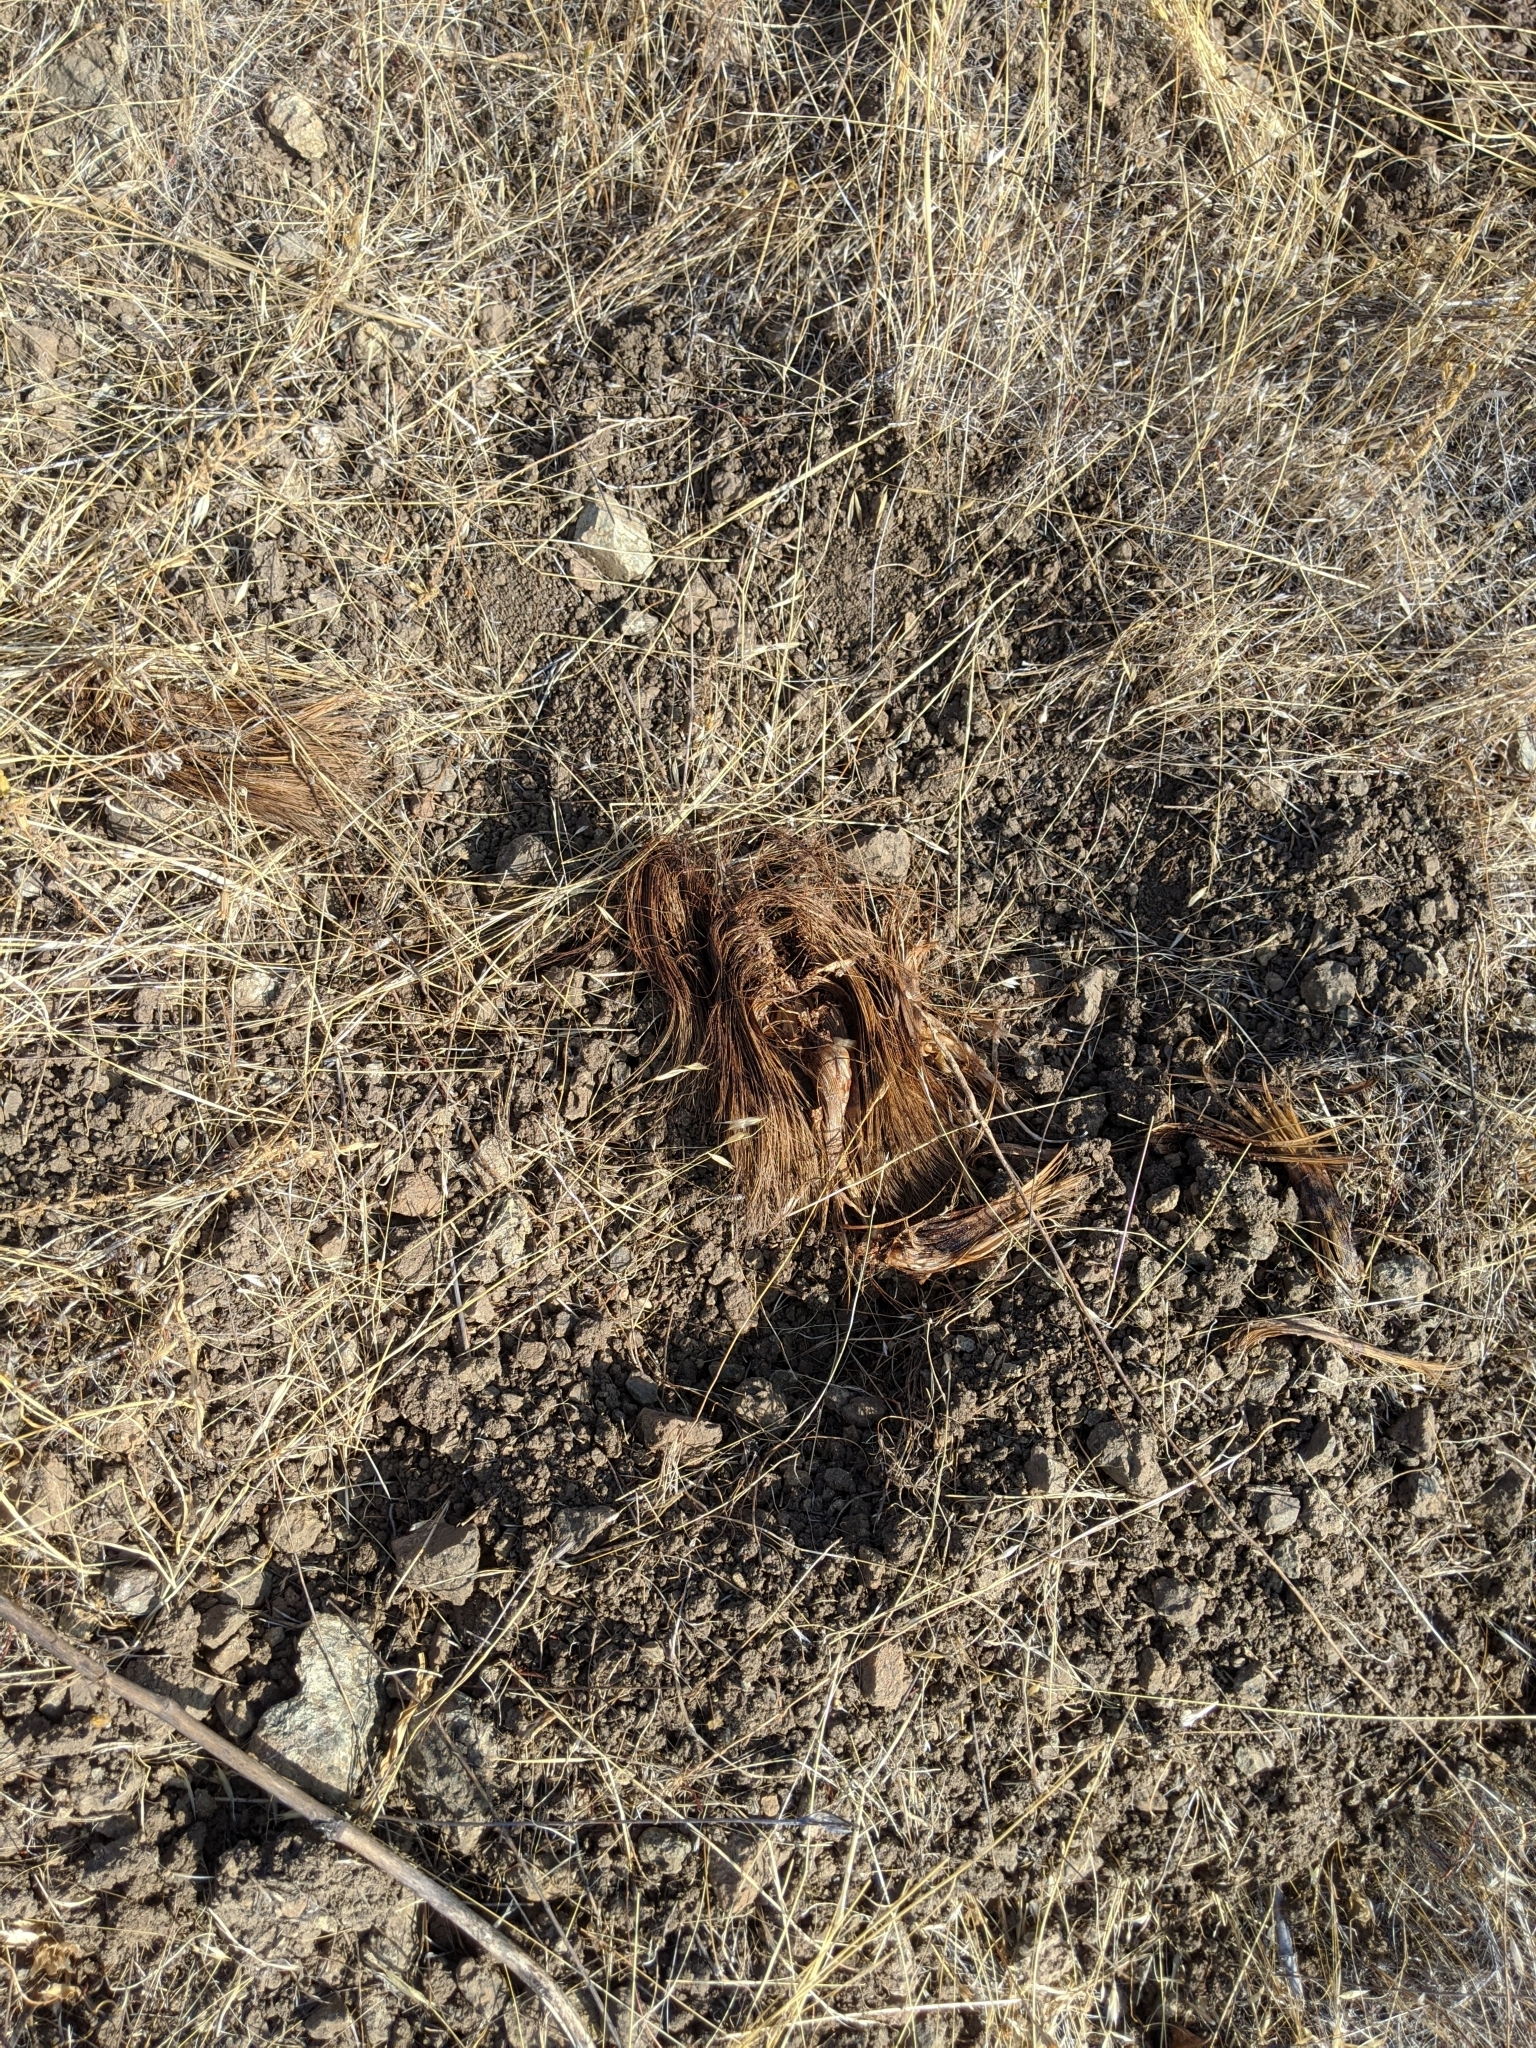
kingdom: Plantae
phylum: Tracheophyta
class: Liliopsida
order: Asparagales
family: Asparagaceae
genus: Chlorogalum
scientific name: Chlorogalum pomeridianum
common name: Amole
